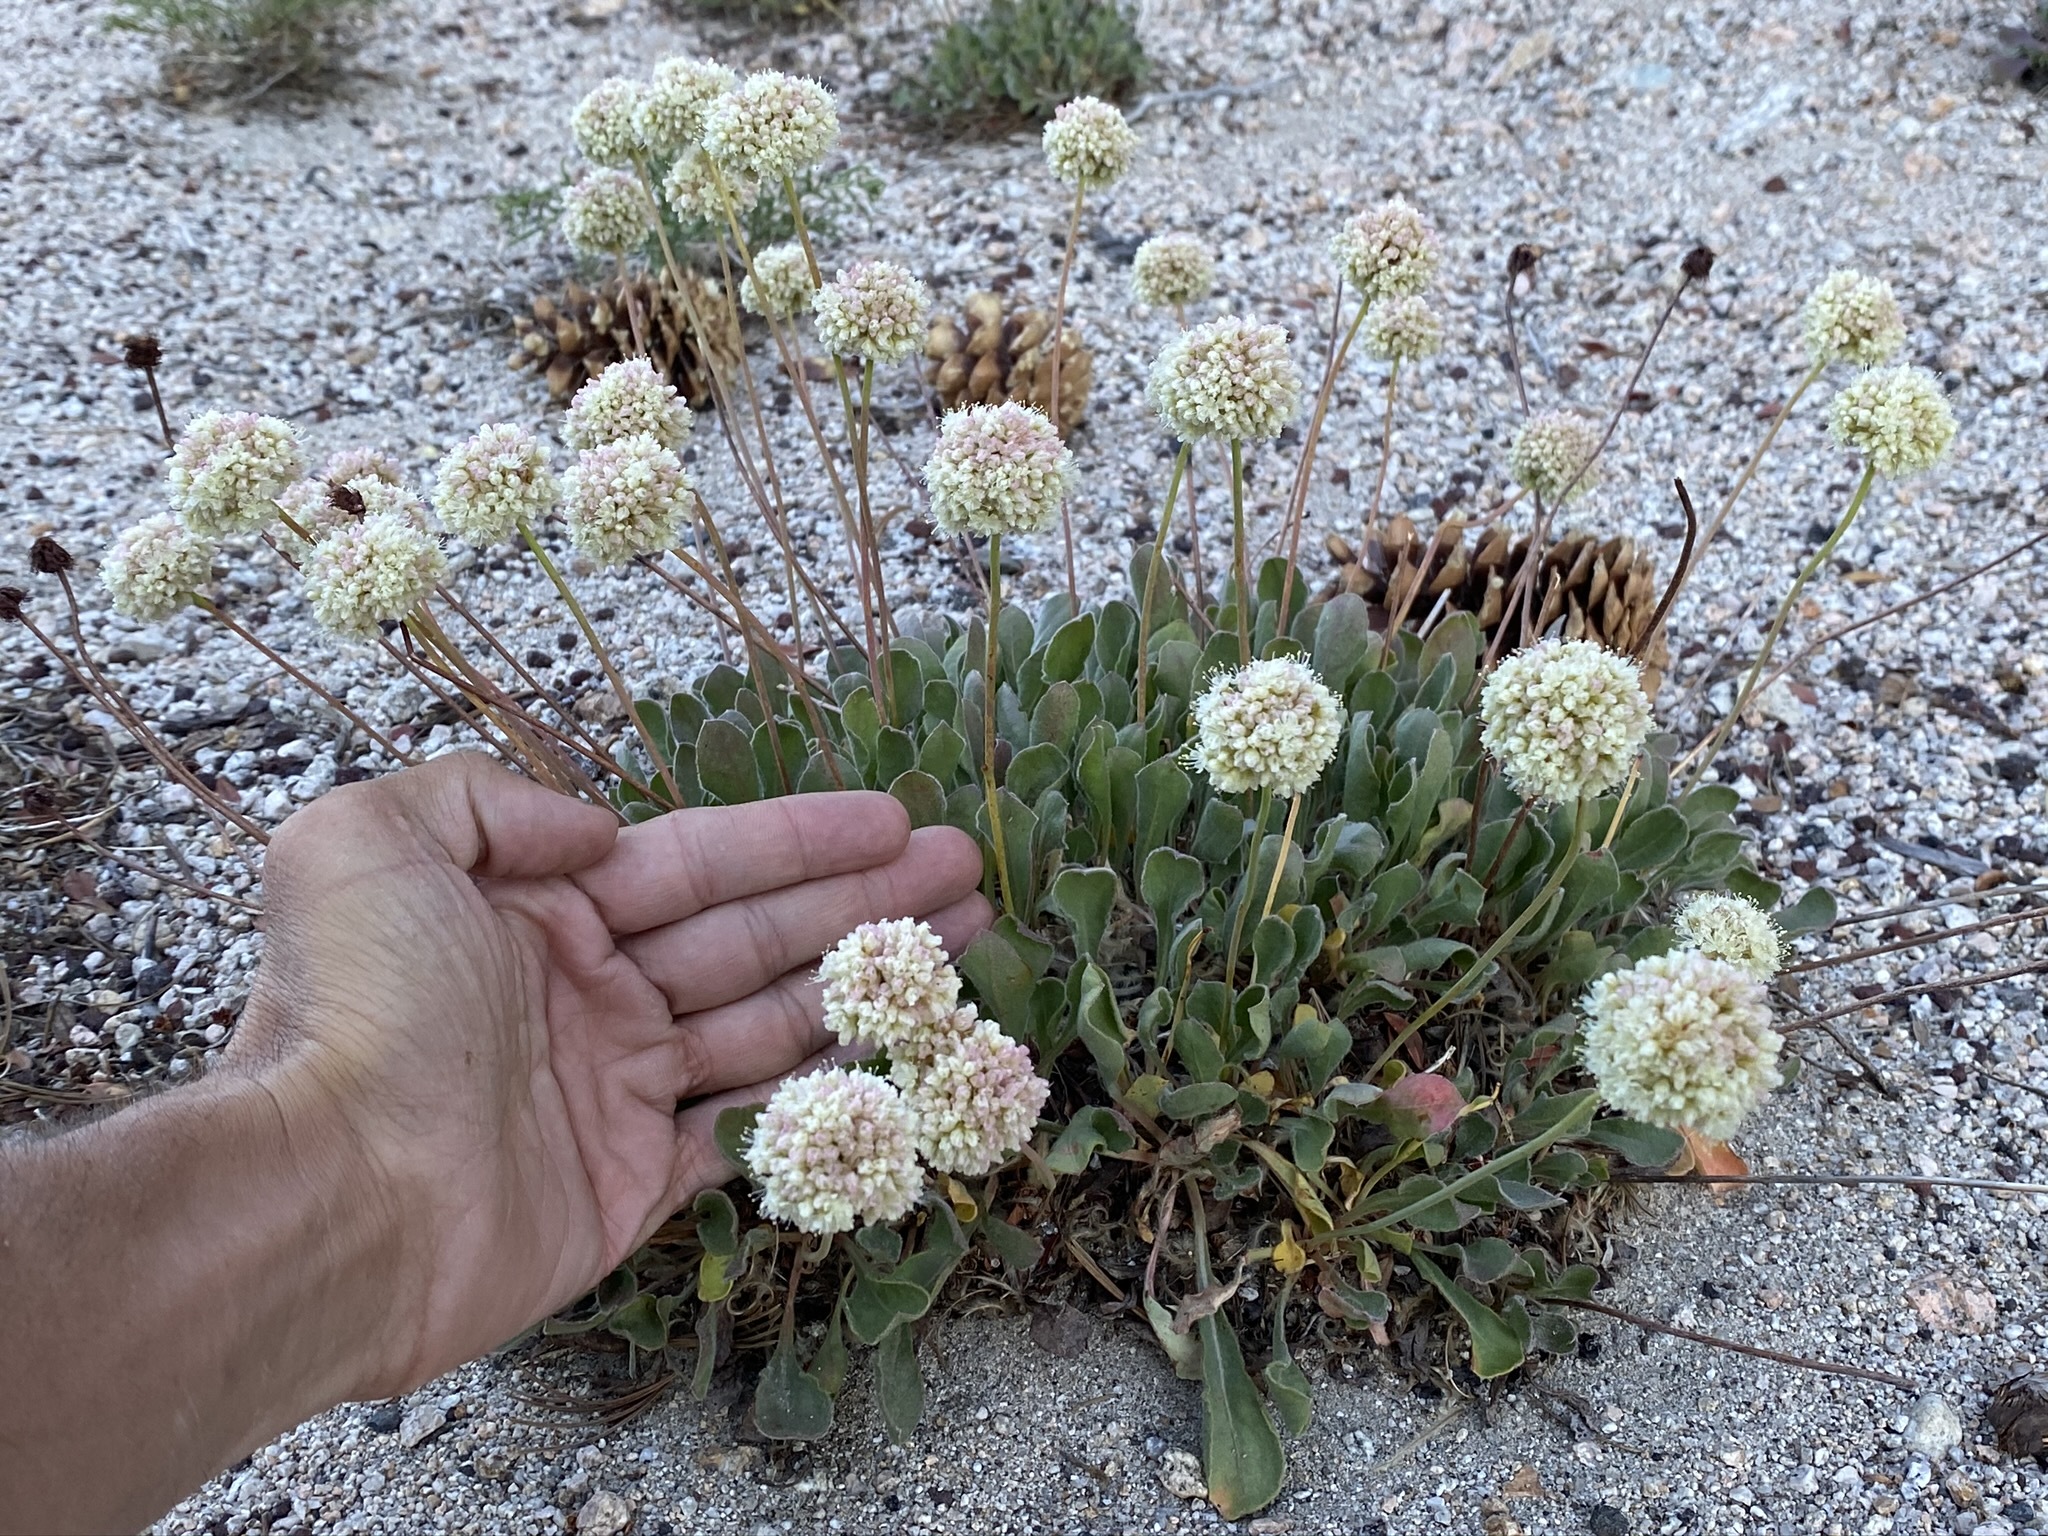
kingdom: Plantae
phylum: Tracheophyta
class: Magnoliopsida
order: Caryophyllales
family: Polygonaceae
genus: Eriogonum
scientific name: Eriogonum latens
